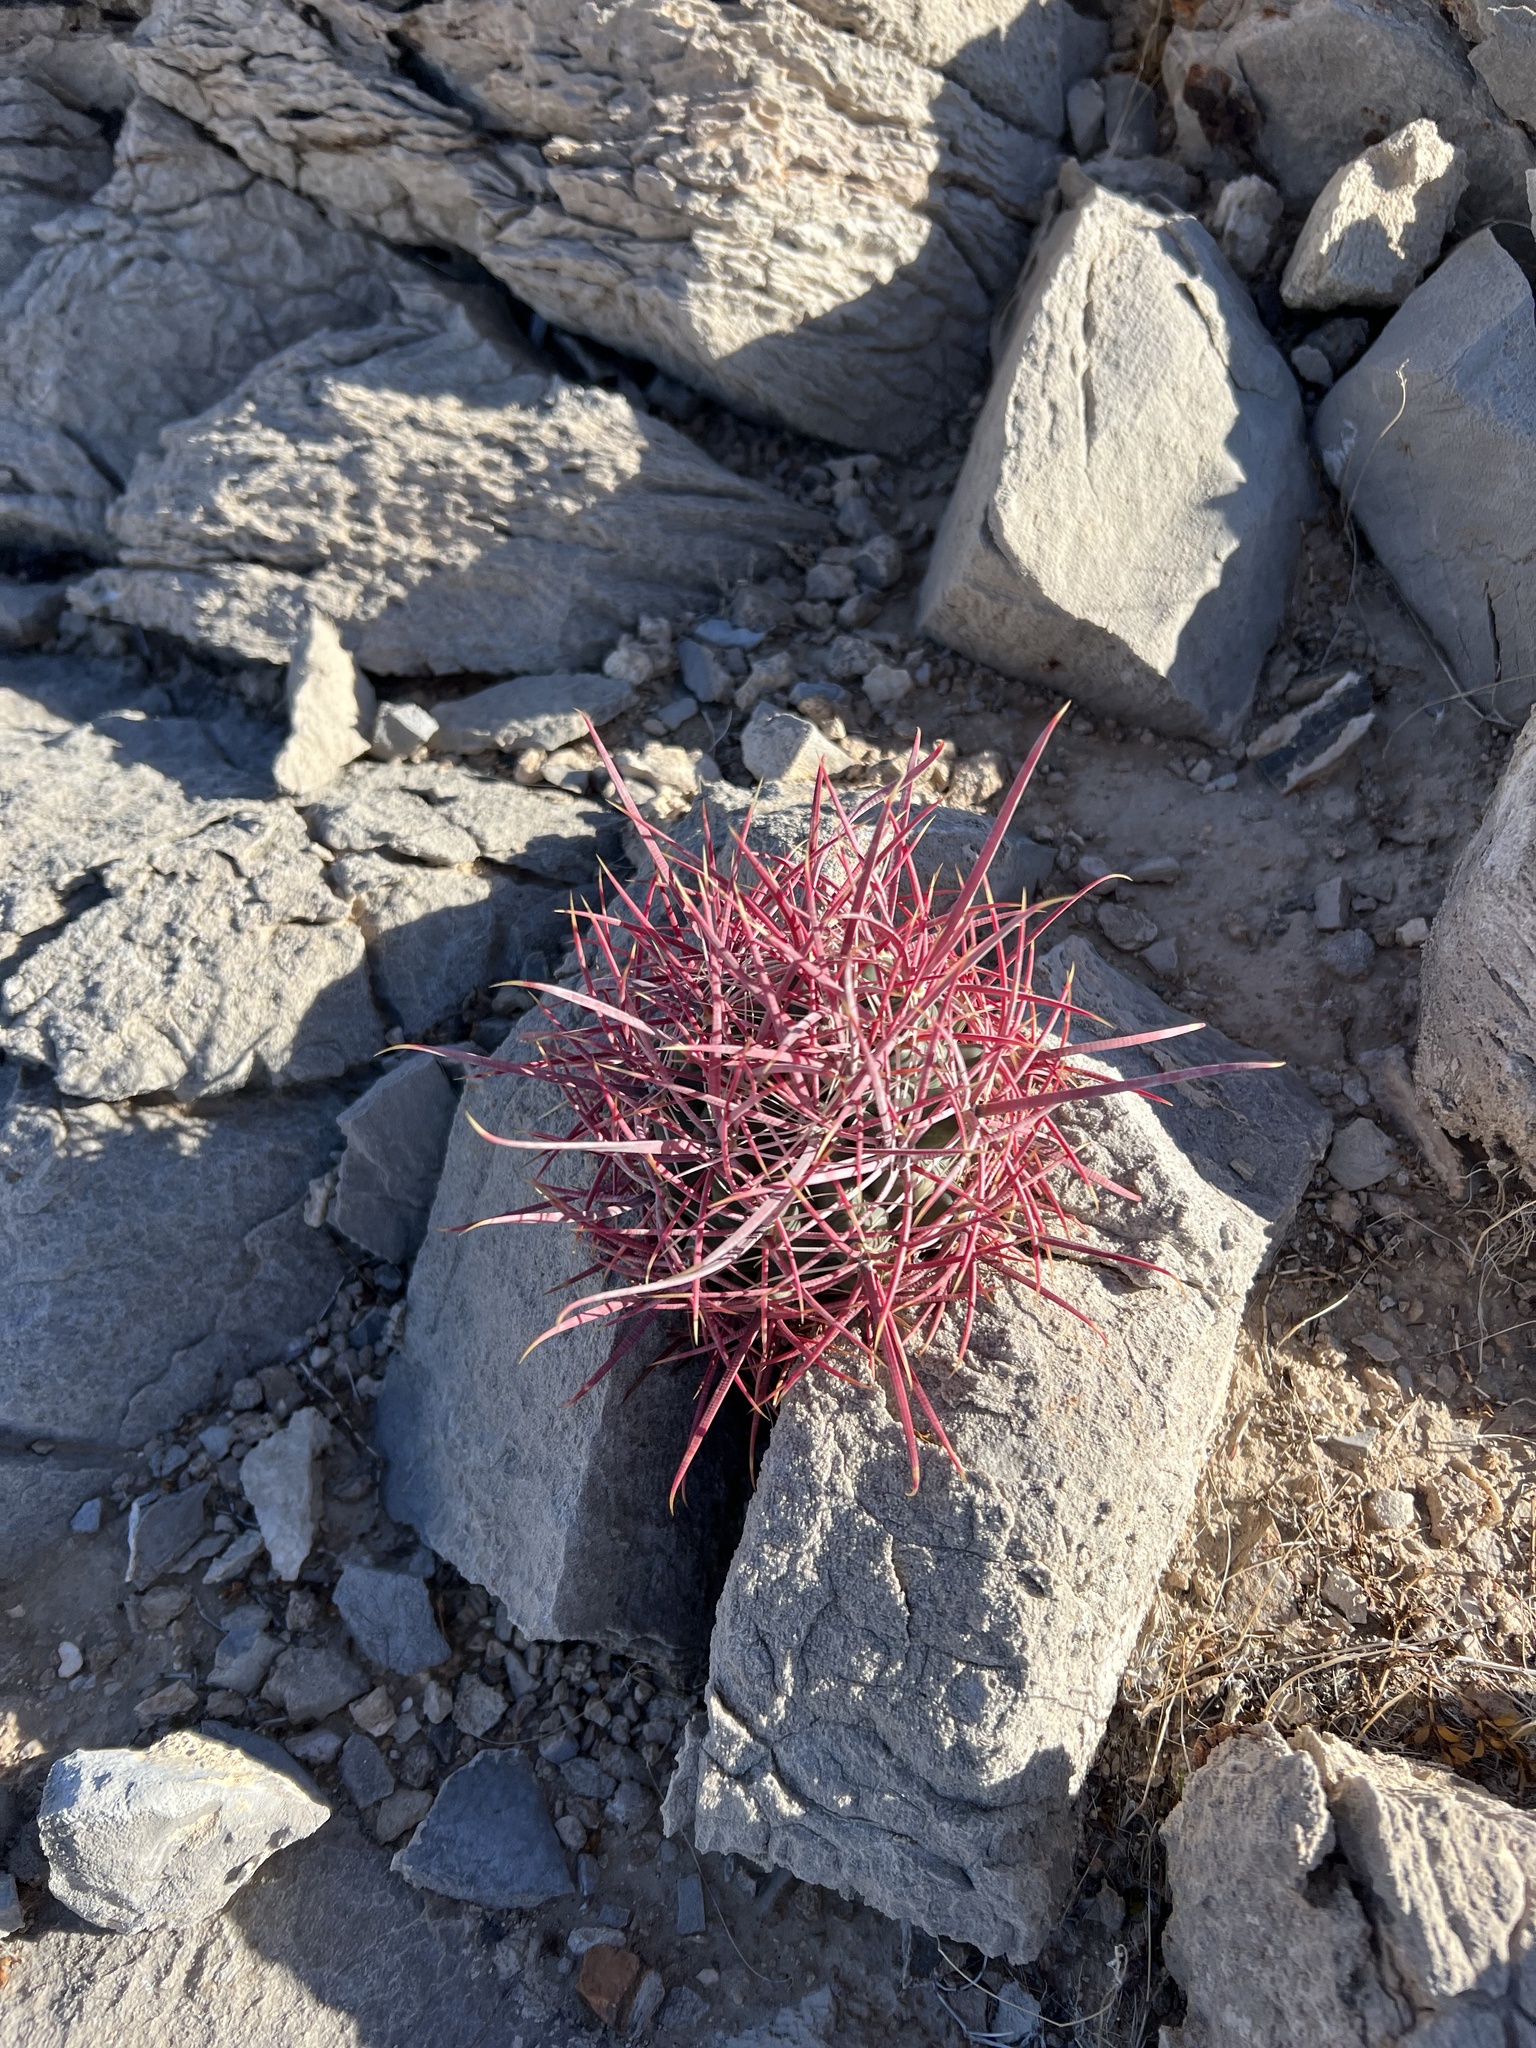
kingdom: Plantae
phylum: Tracheophyta
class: Magnoliopsida
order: Caryophyllales
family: Cactaceae
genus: Ferocactus
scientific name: Ferocactus cylindraceus
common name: California barrel cactus
